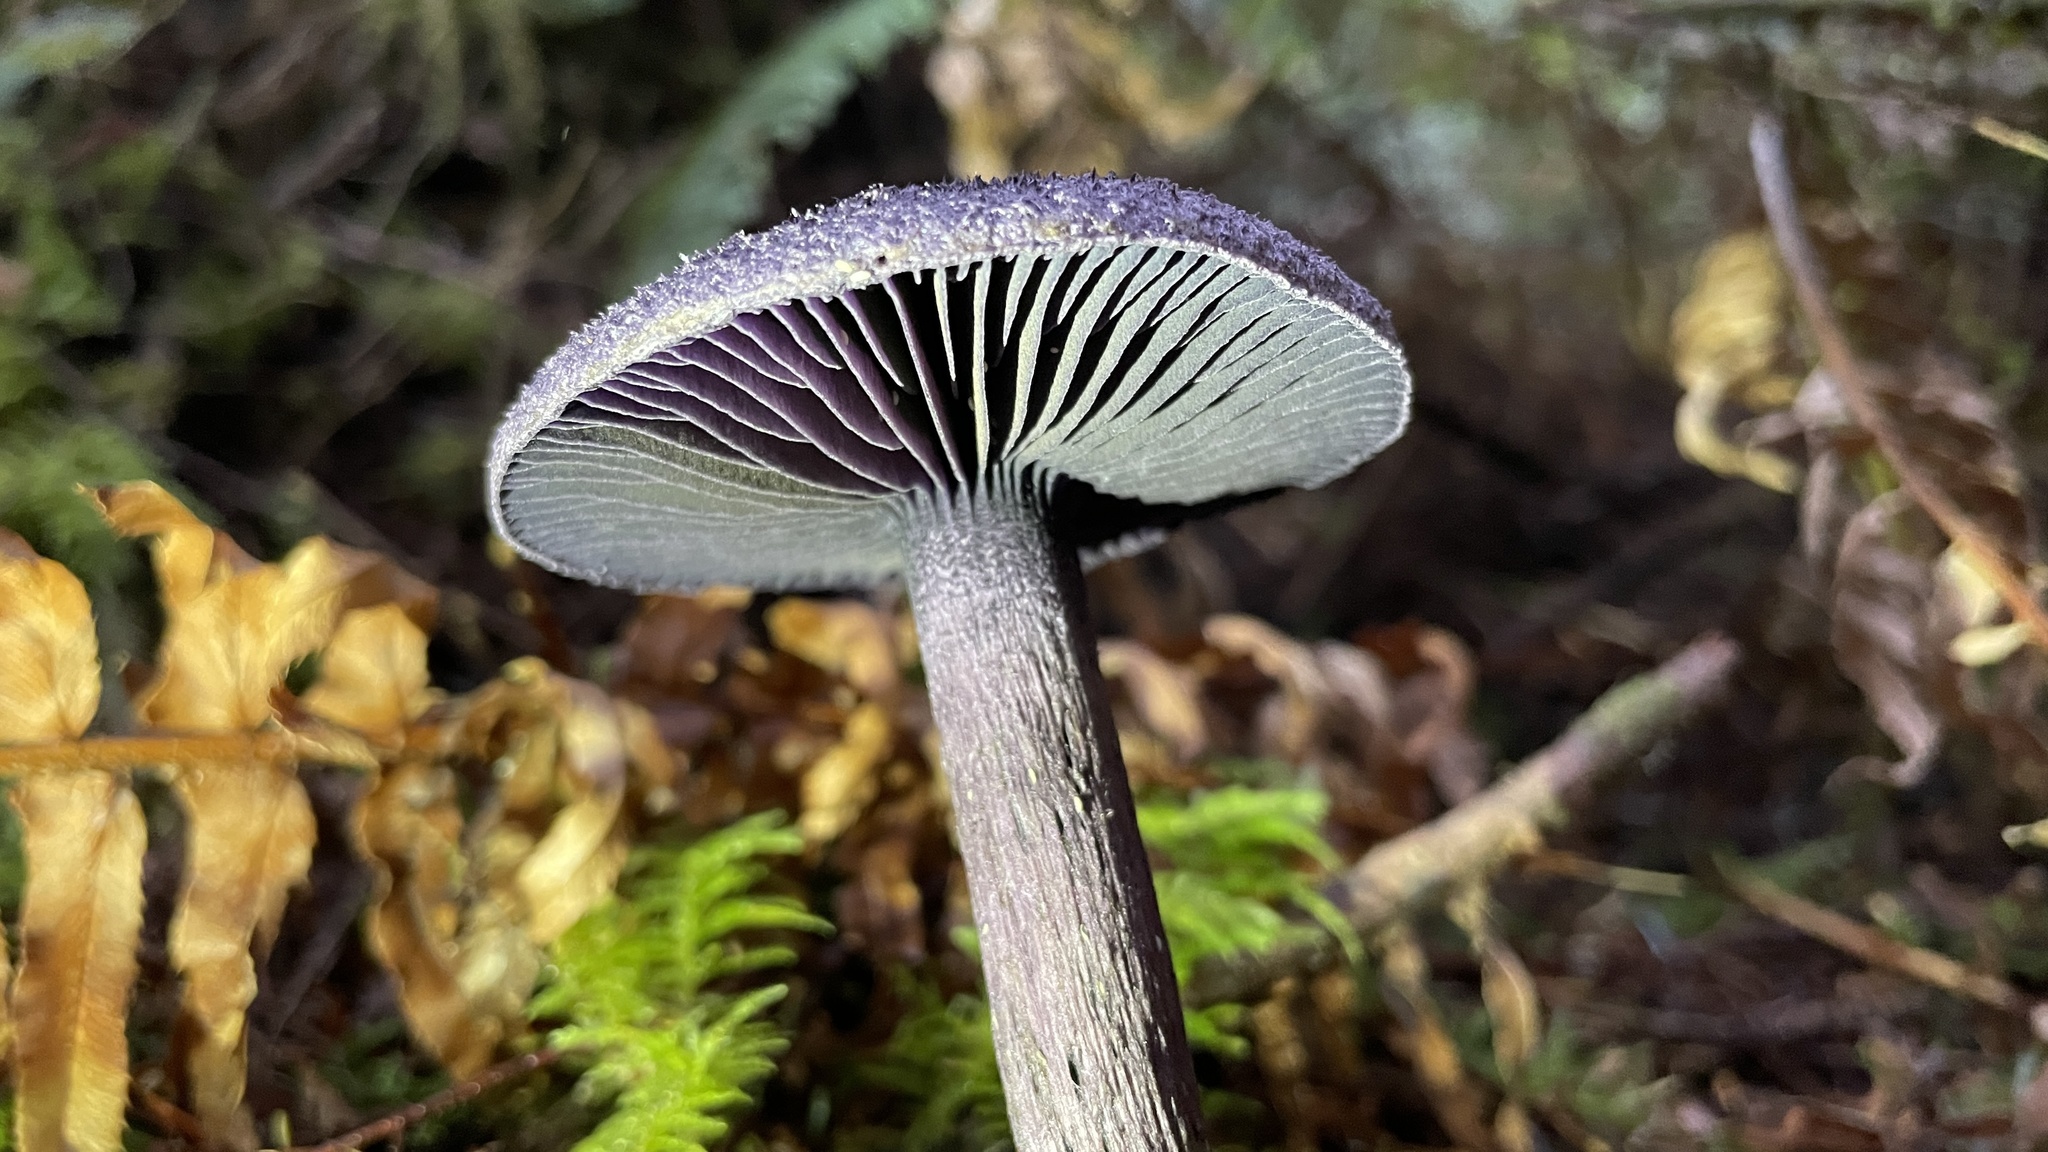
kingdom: Fungi
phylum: Basidiomycota
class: Agaricomycetes
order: Agaricales
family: Cortinariaceae
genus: Cortinarius
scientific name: Cortinarius violaceus
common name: Violet webcap
